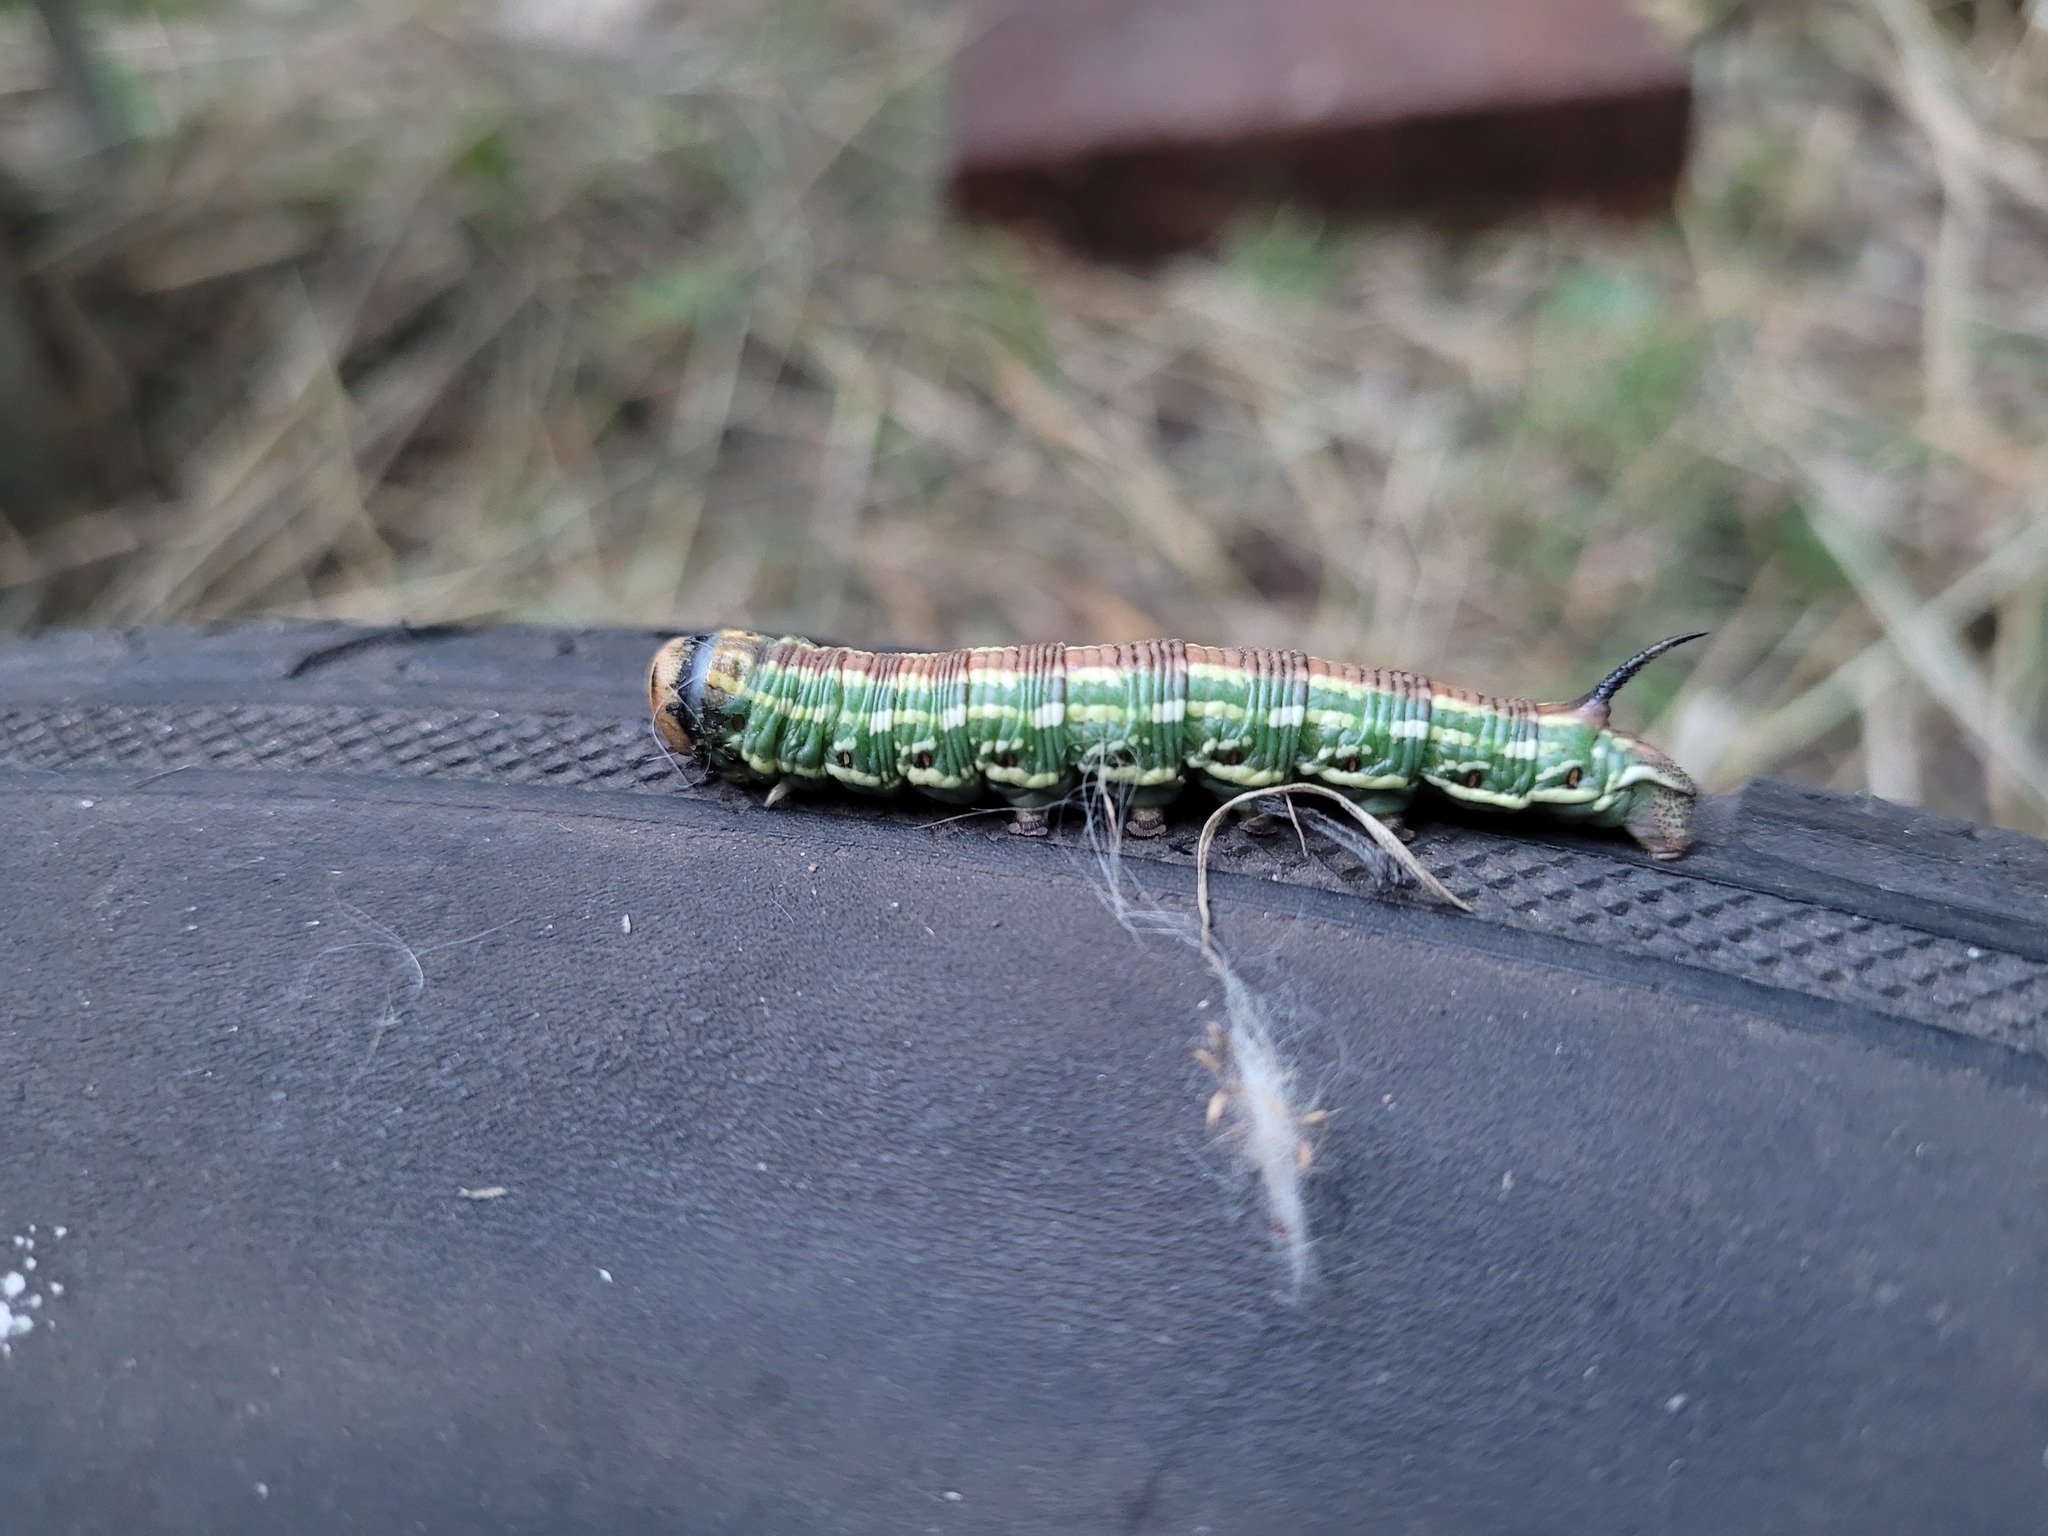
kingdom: Animalia
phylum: Arthropoda
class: Insecta
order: Lepidoptera
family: Sphingidae
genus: Sphinx
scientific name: Sphinx pinastri
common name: Pine hawk-moth
